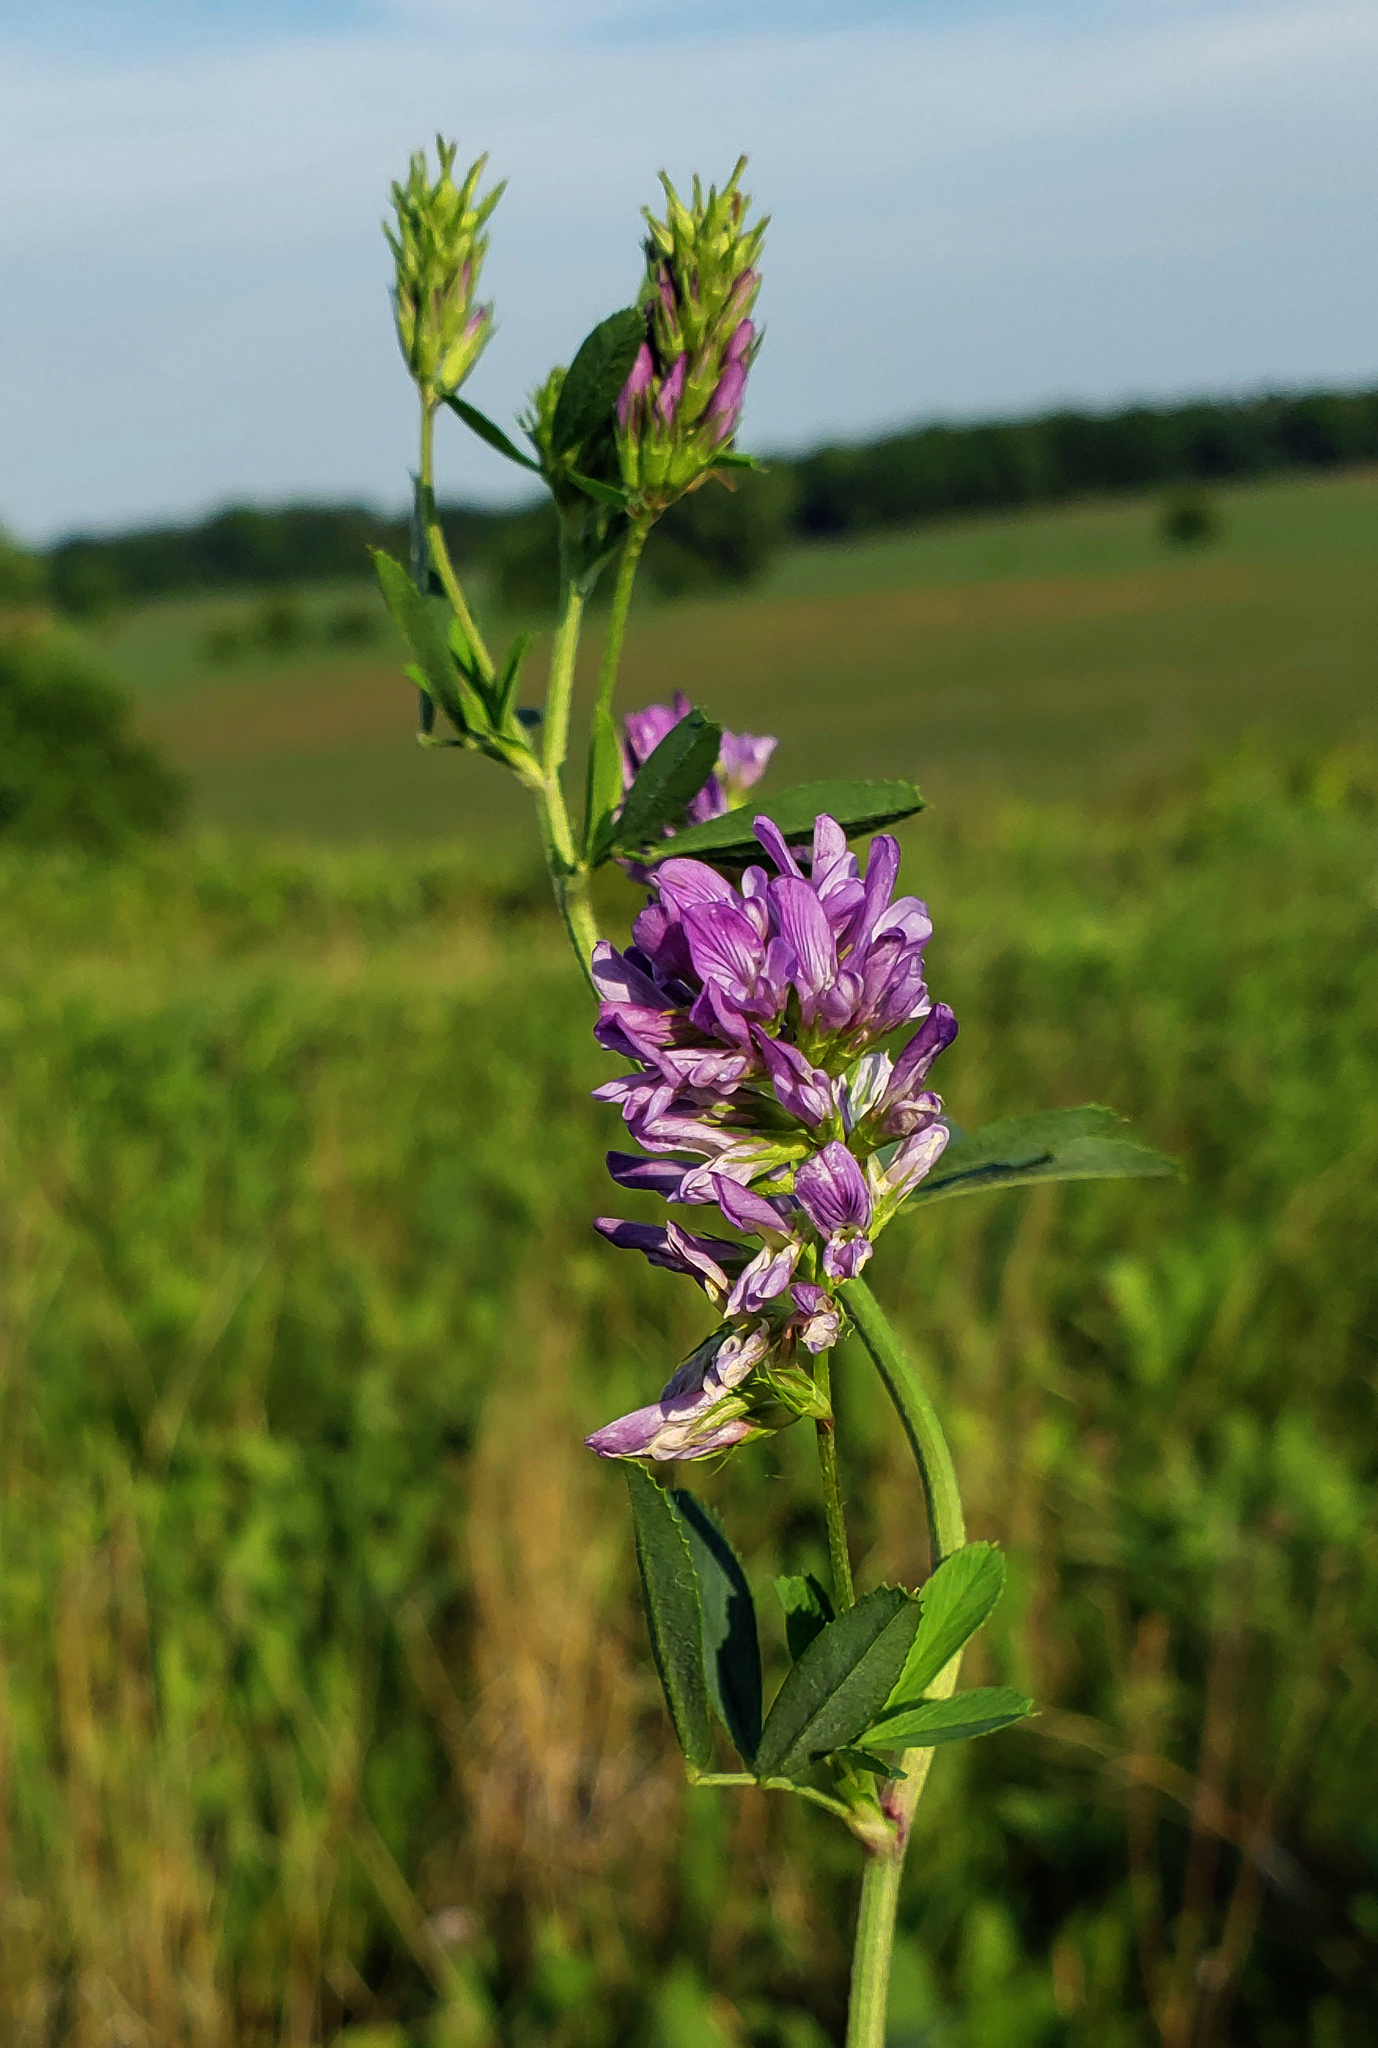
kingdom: Plantae
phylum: Tracheophyta
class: Magnoliopsida
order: Fabales
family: Fabaceae
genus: Medicago
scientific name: Medicago sativa
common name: Alfalfa
